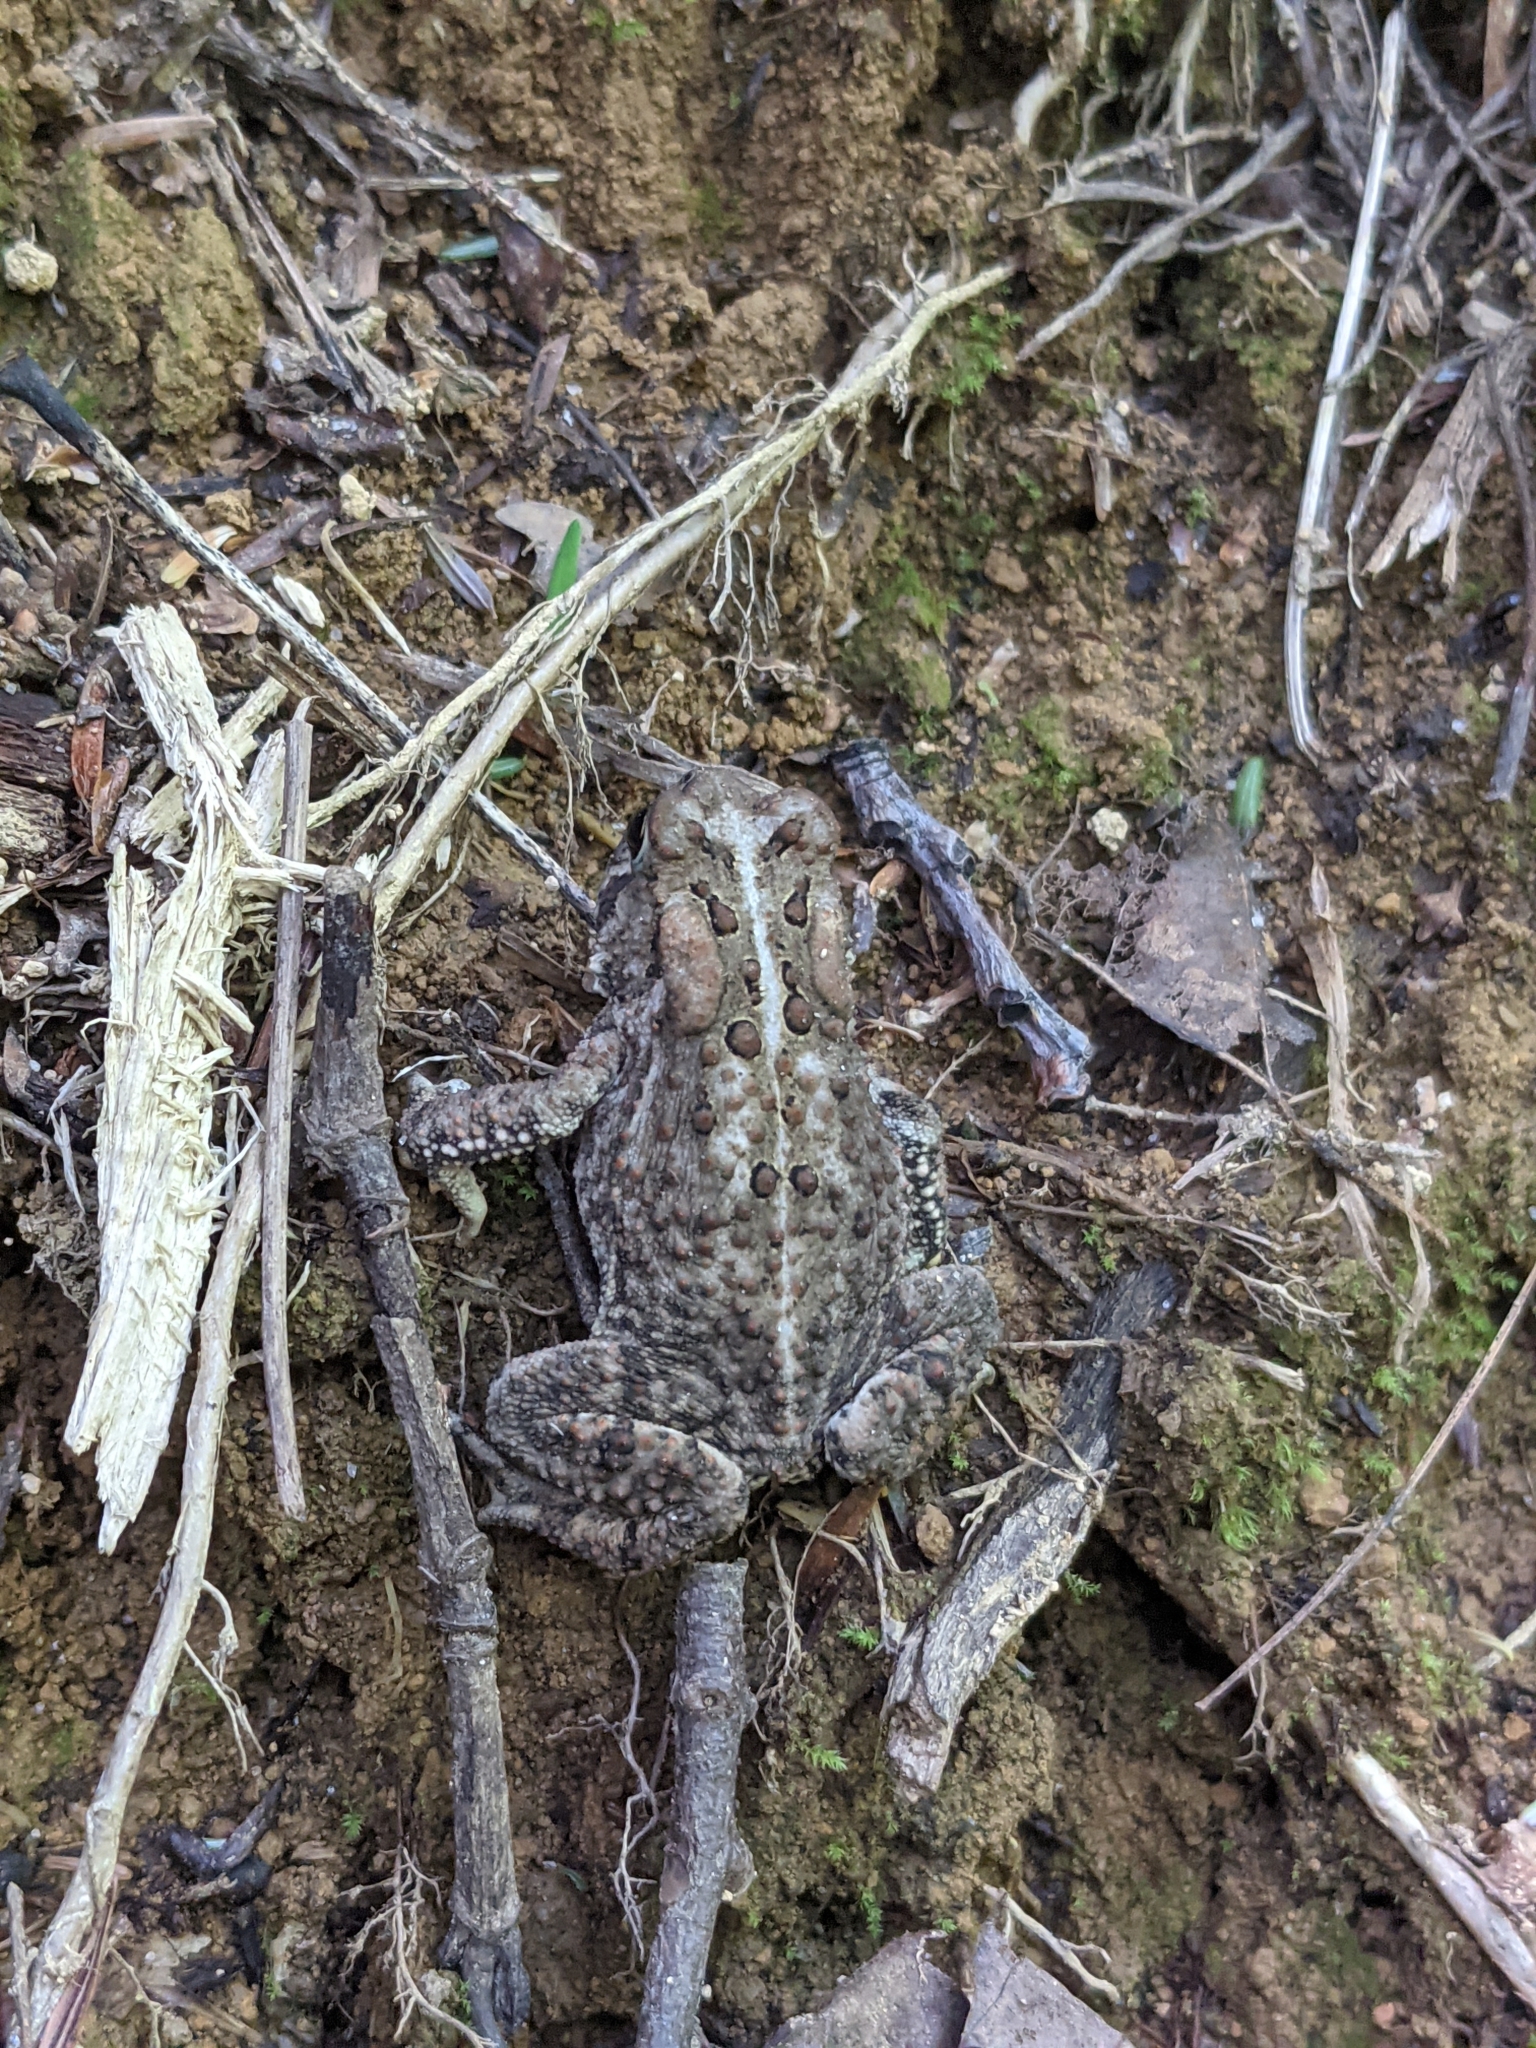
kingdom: Animalia
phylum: Chordata
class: Amphibia
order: Anura
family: Bufonidae
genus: Anaxyrus
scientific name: Anaxyrus americanus
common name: American toad
